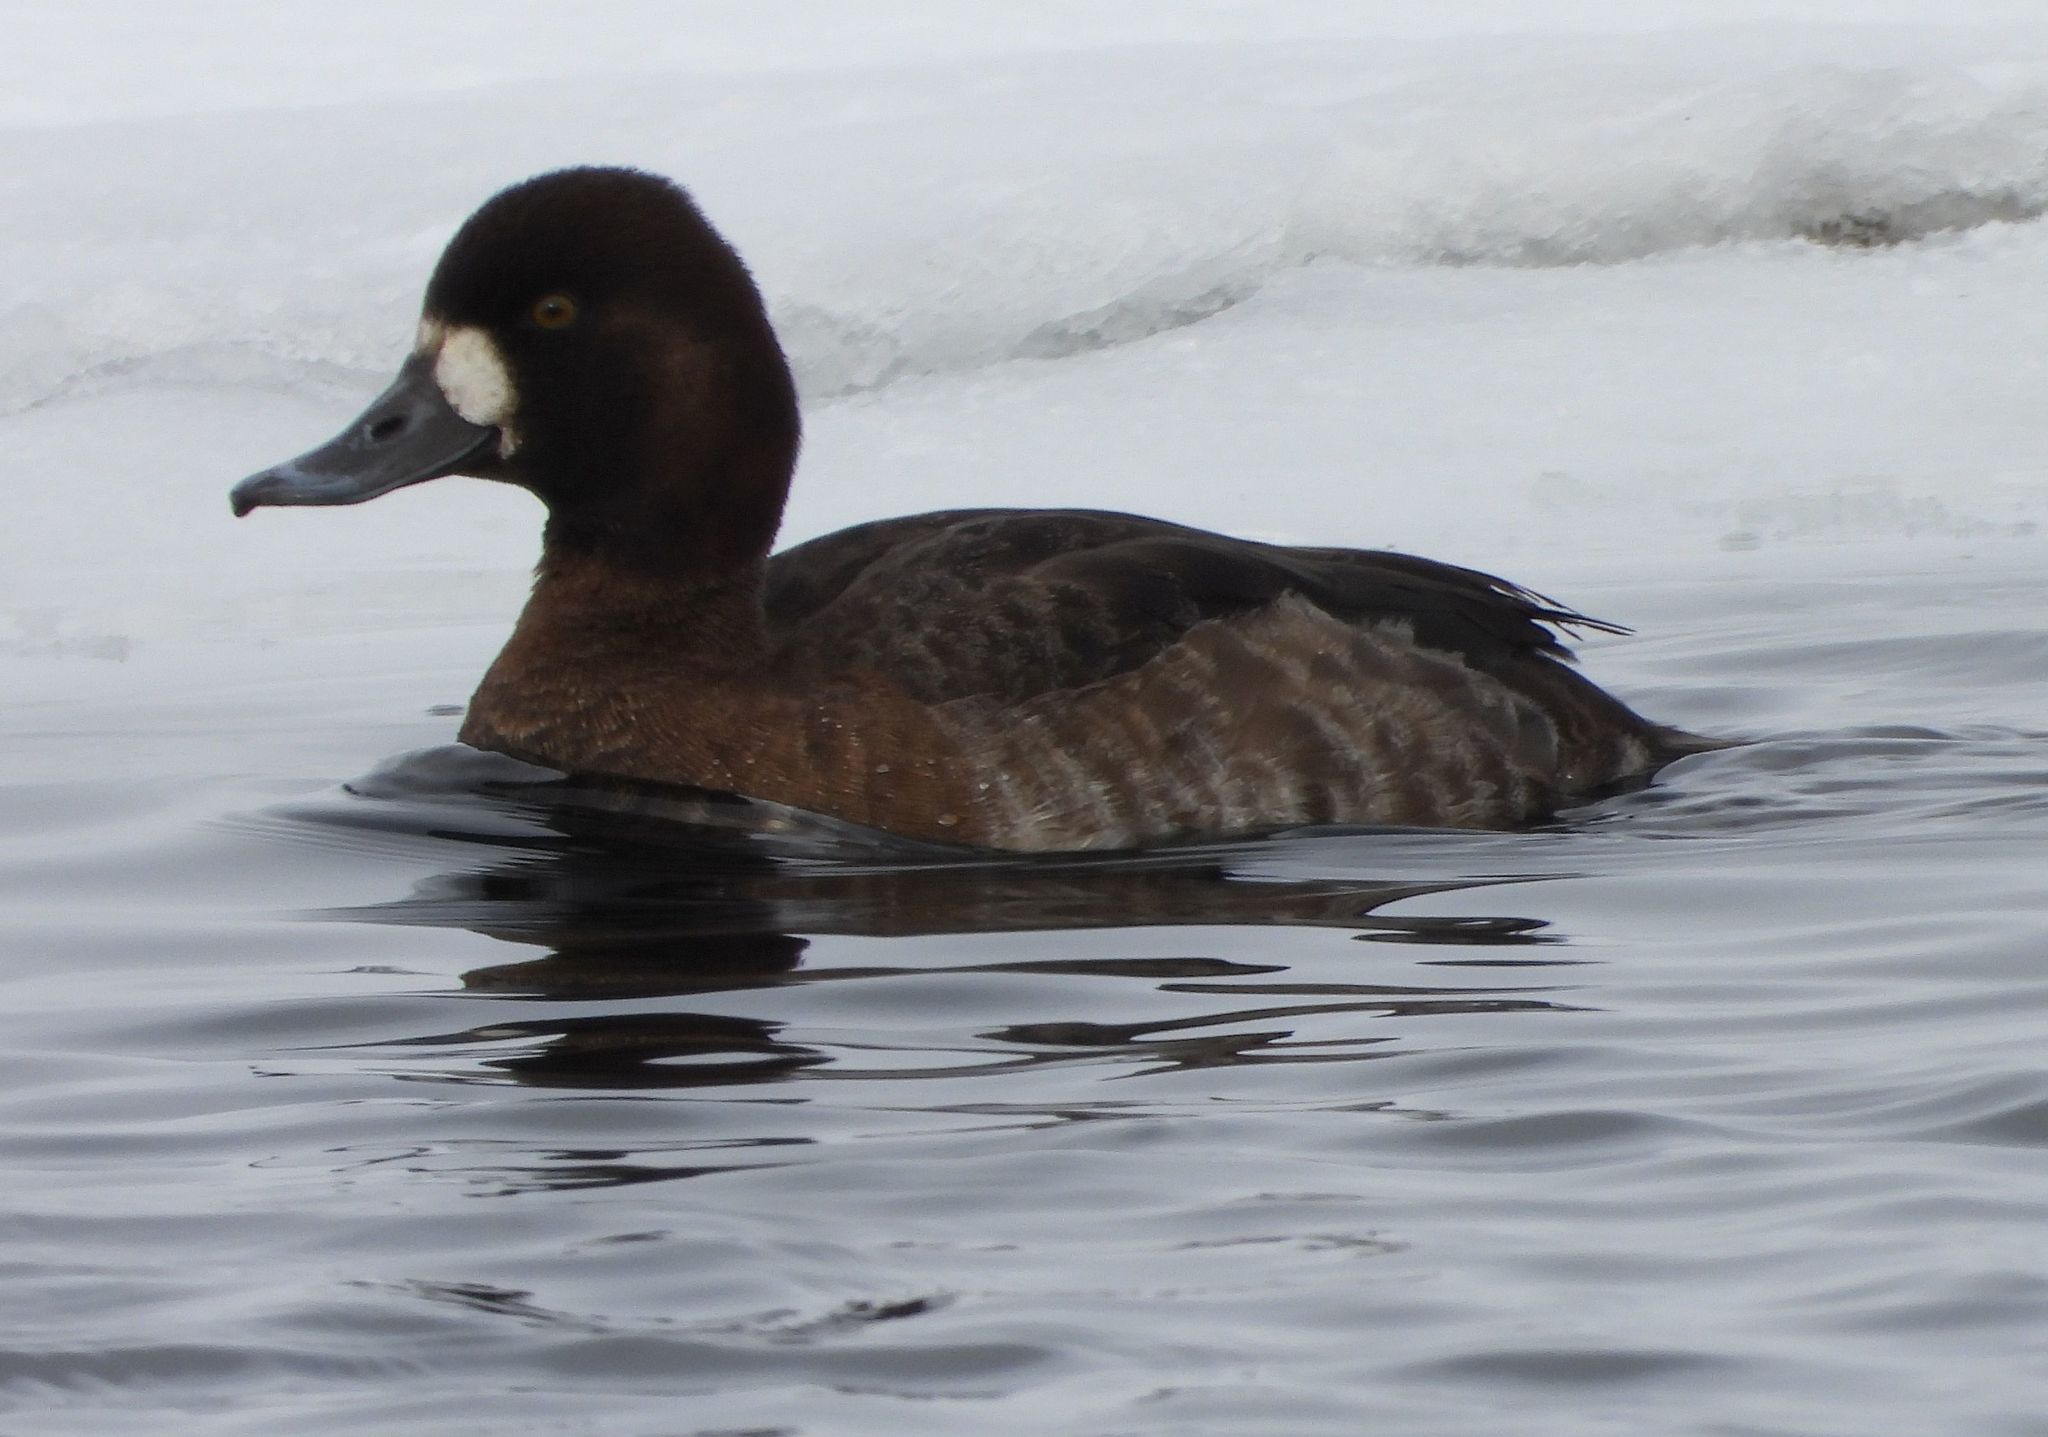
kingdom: Animalia
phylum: Chordata
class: Aves
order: Anseriformes
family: Anatidae
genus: Aythya
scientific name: Aythya affinis
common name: Lesser scaup
